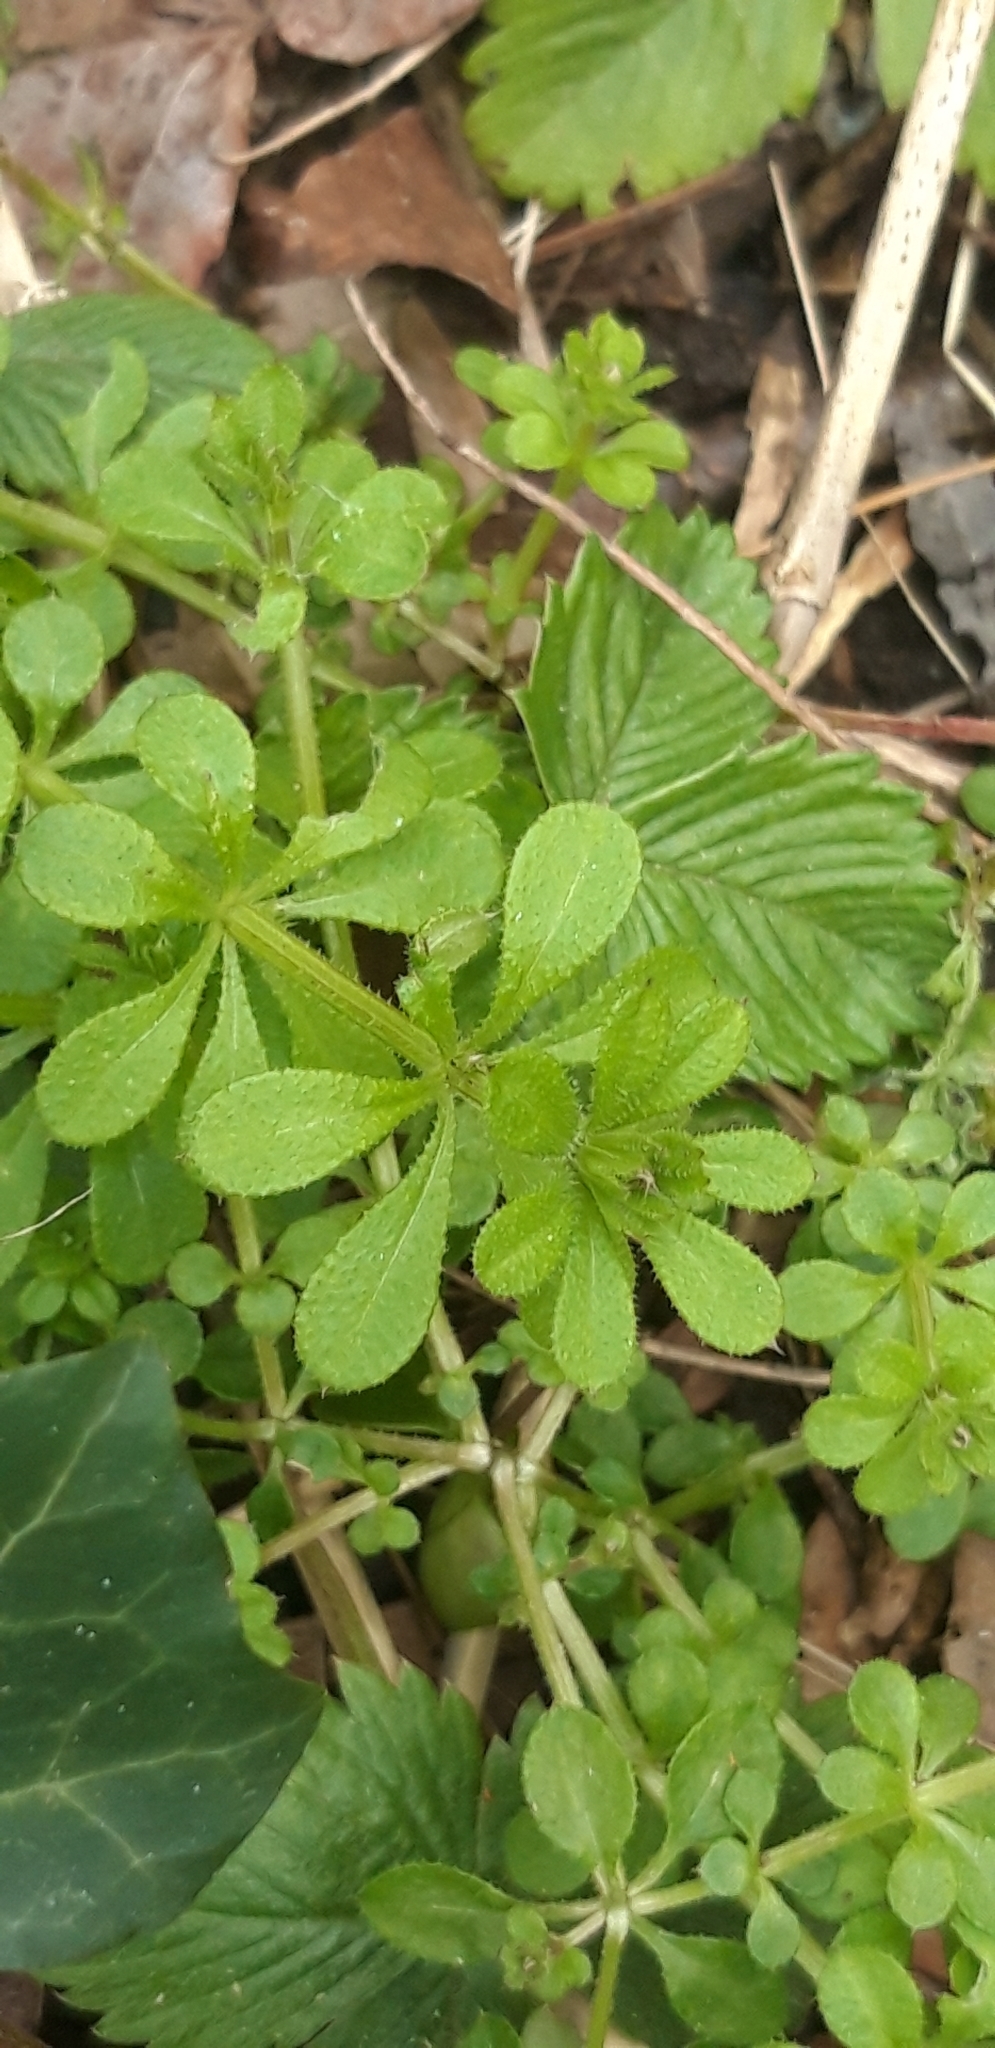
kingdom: Plantae
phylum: Tracheophyta
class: Magnoliopsida
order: Gentianales
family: Rubiaceae
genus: Galium
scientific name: Galium aparine
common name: Cleavers
